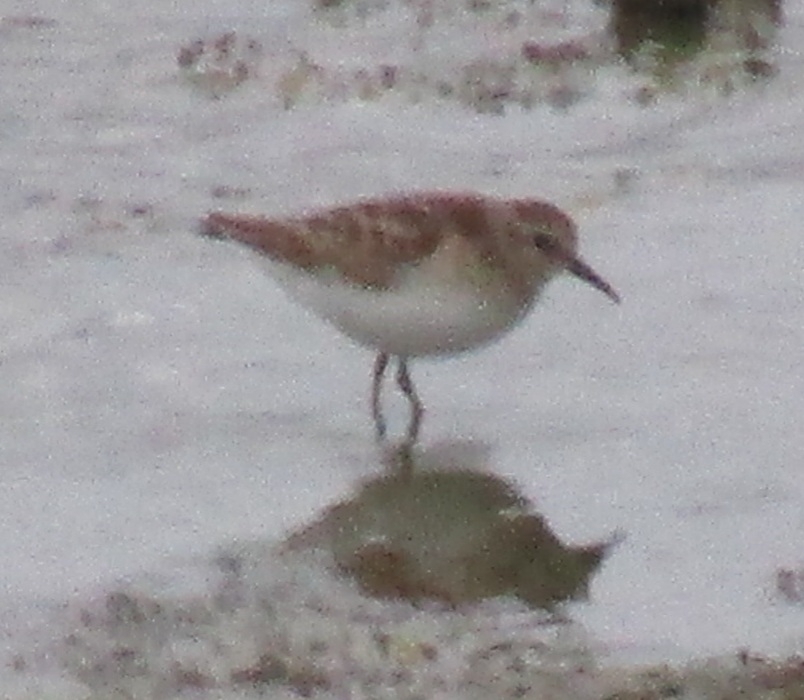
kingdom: Animalia
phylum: Chordata
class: Aves
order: Charadriiformes
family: Scolopacidae
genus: Calidris
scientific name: Calidris
